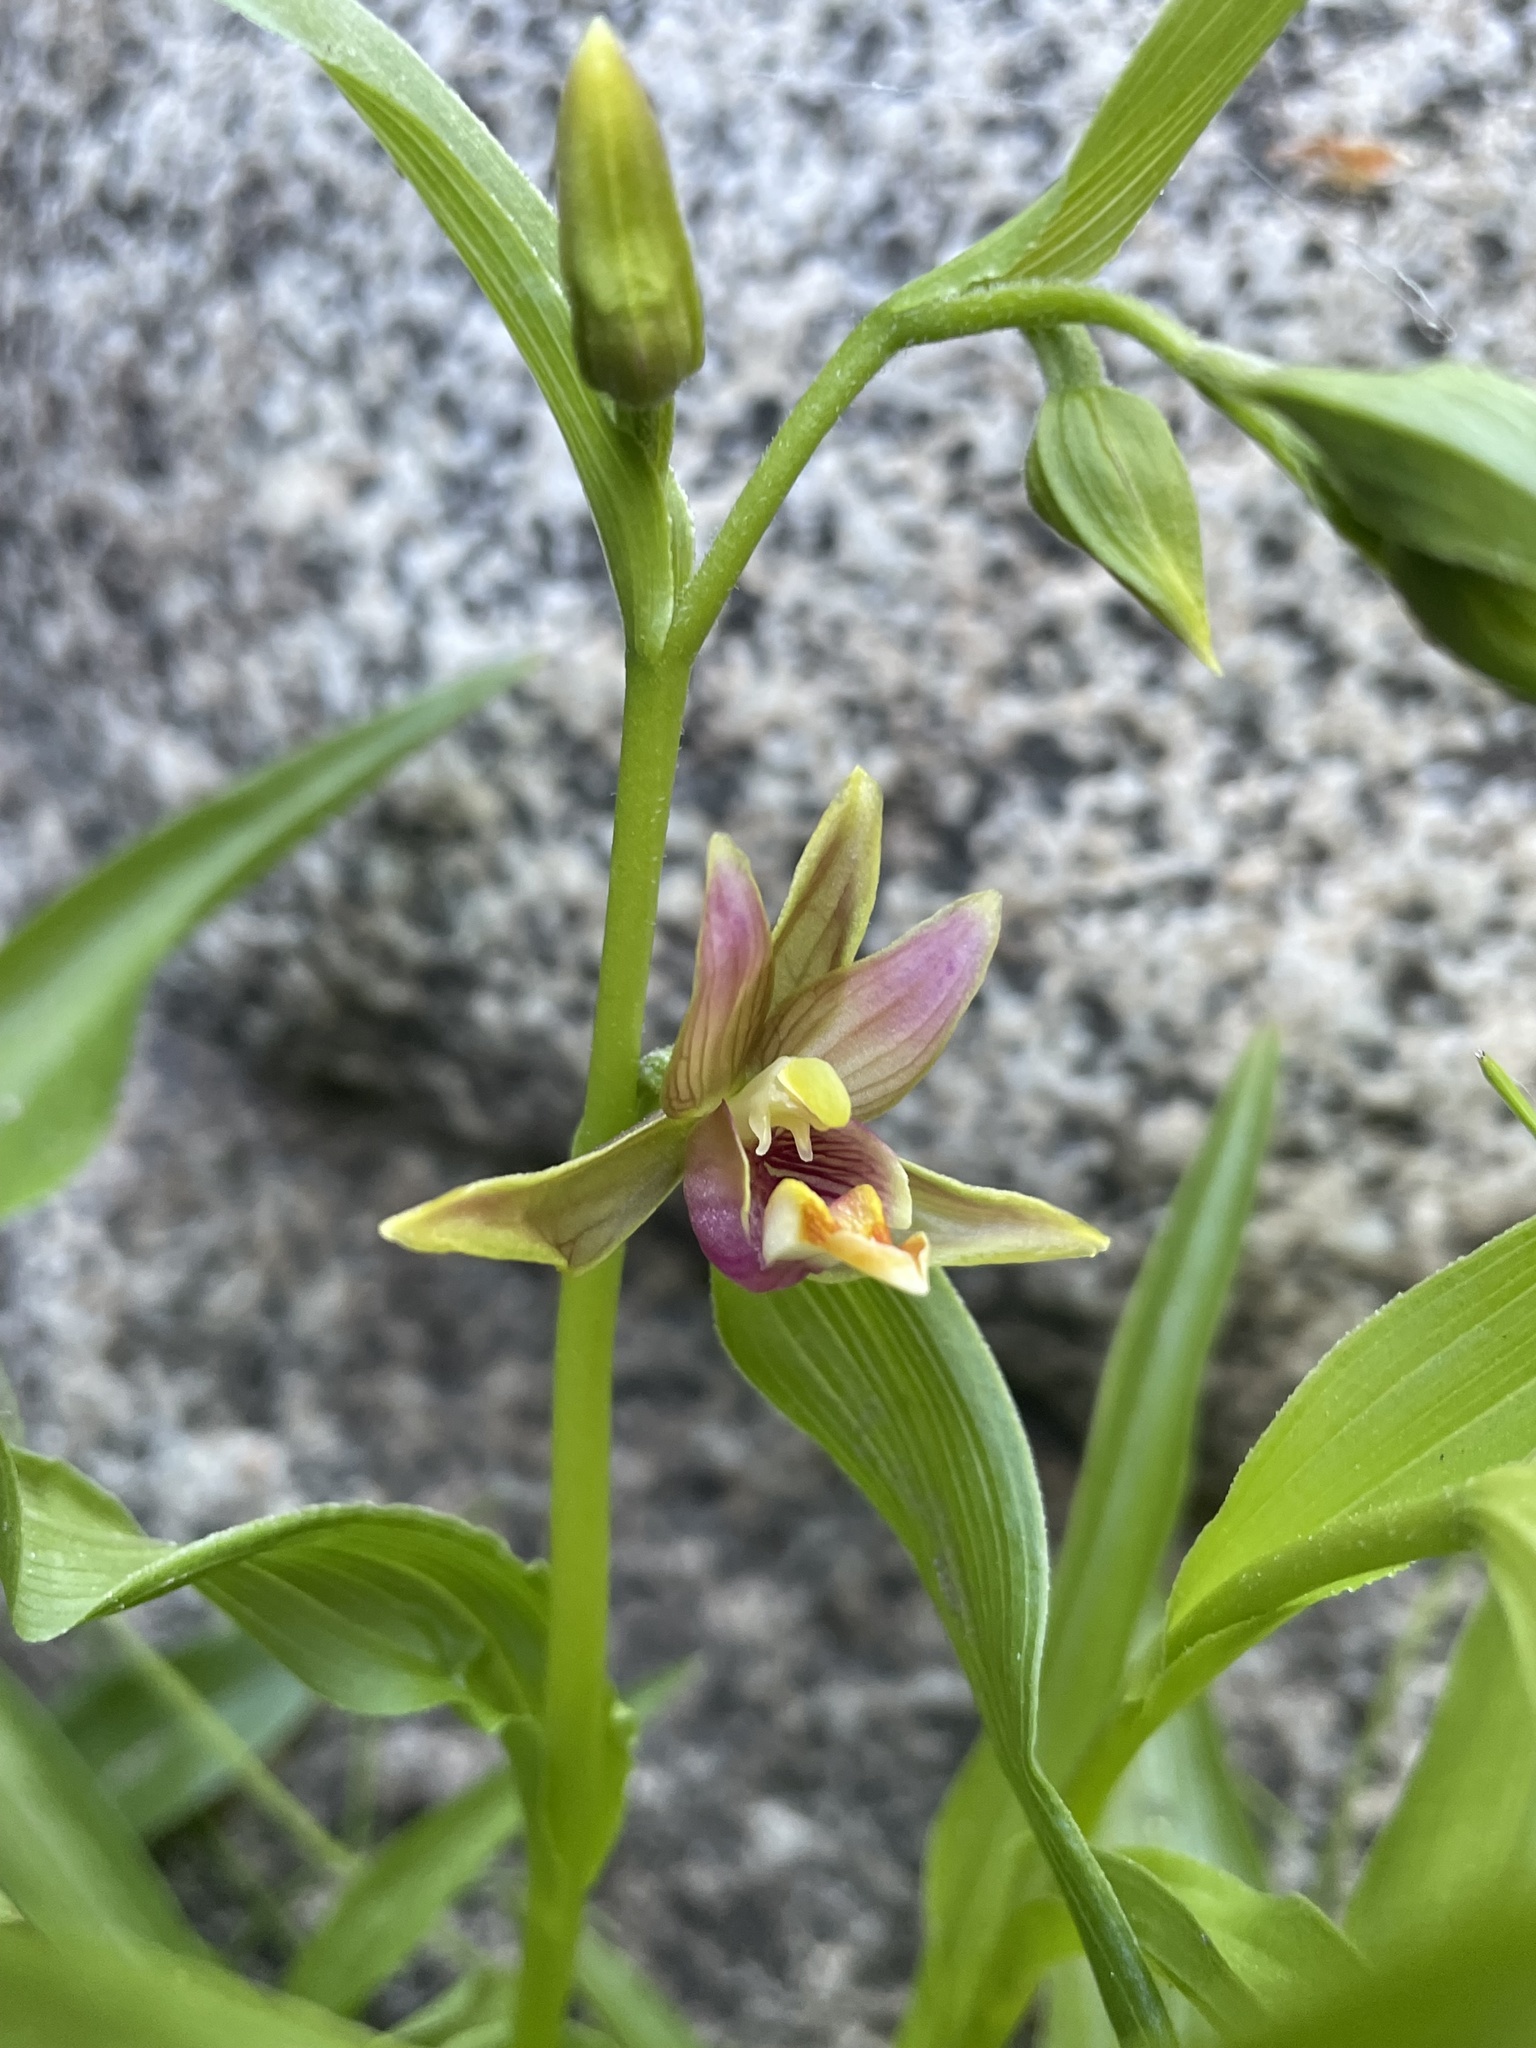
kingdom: Plantae
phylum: Tracheophyta
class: Liliopsida
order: Asparagales
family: Orchidaceae
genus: Epipactis
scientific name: Epipactis gigantea
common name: Chatterbox
